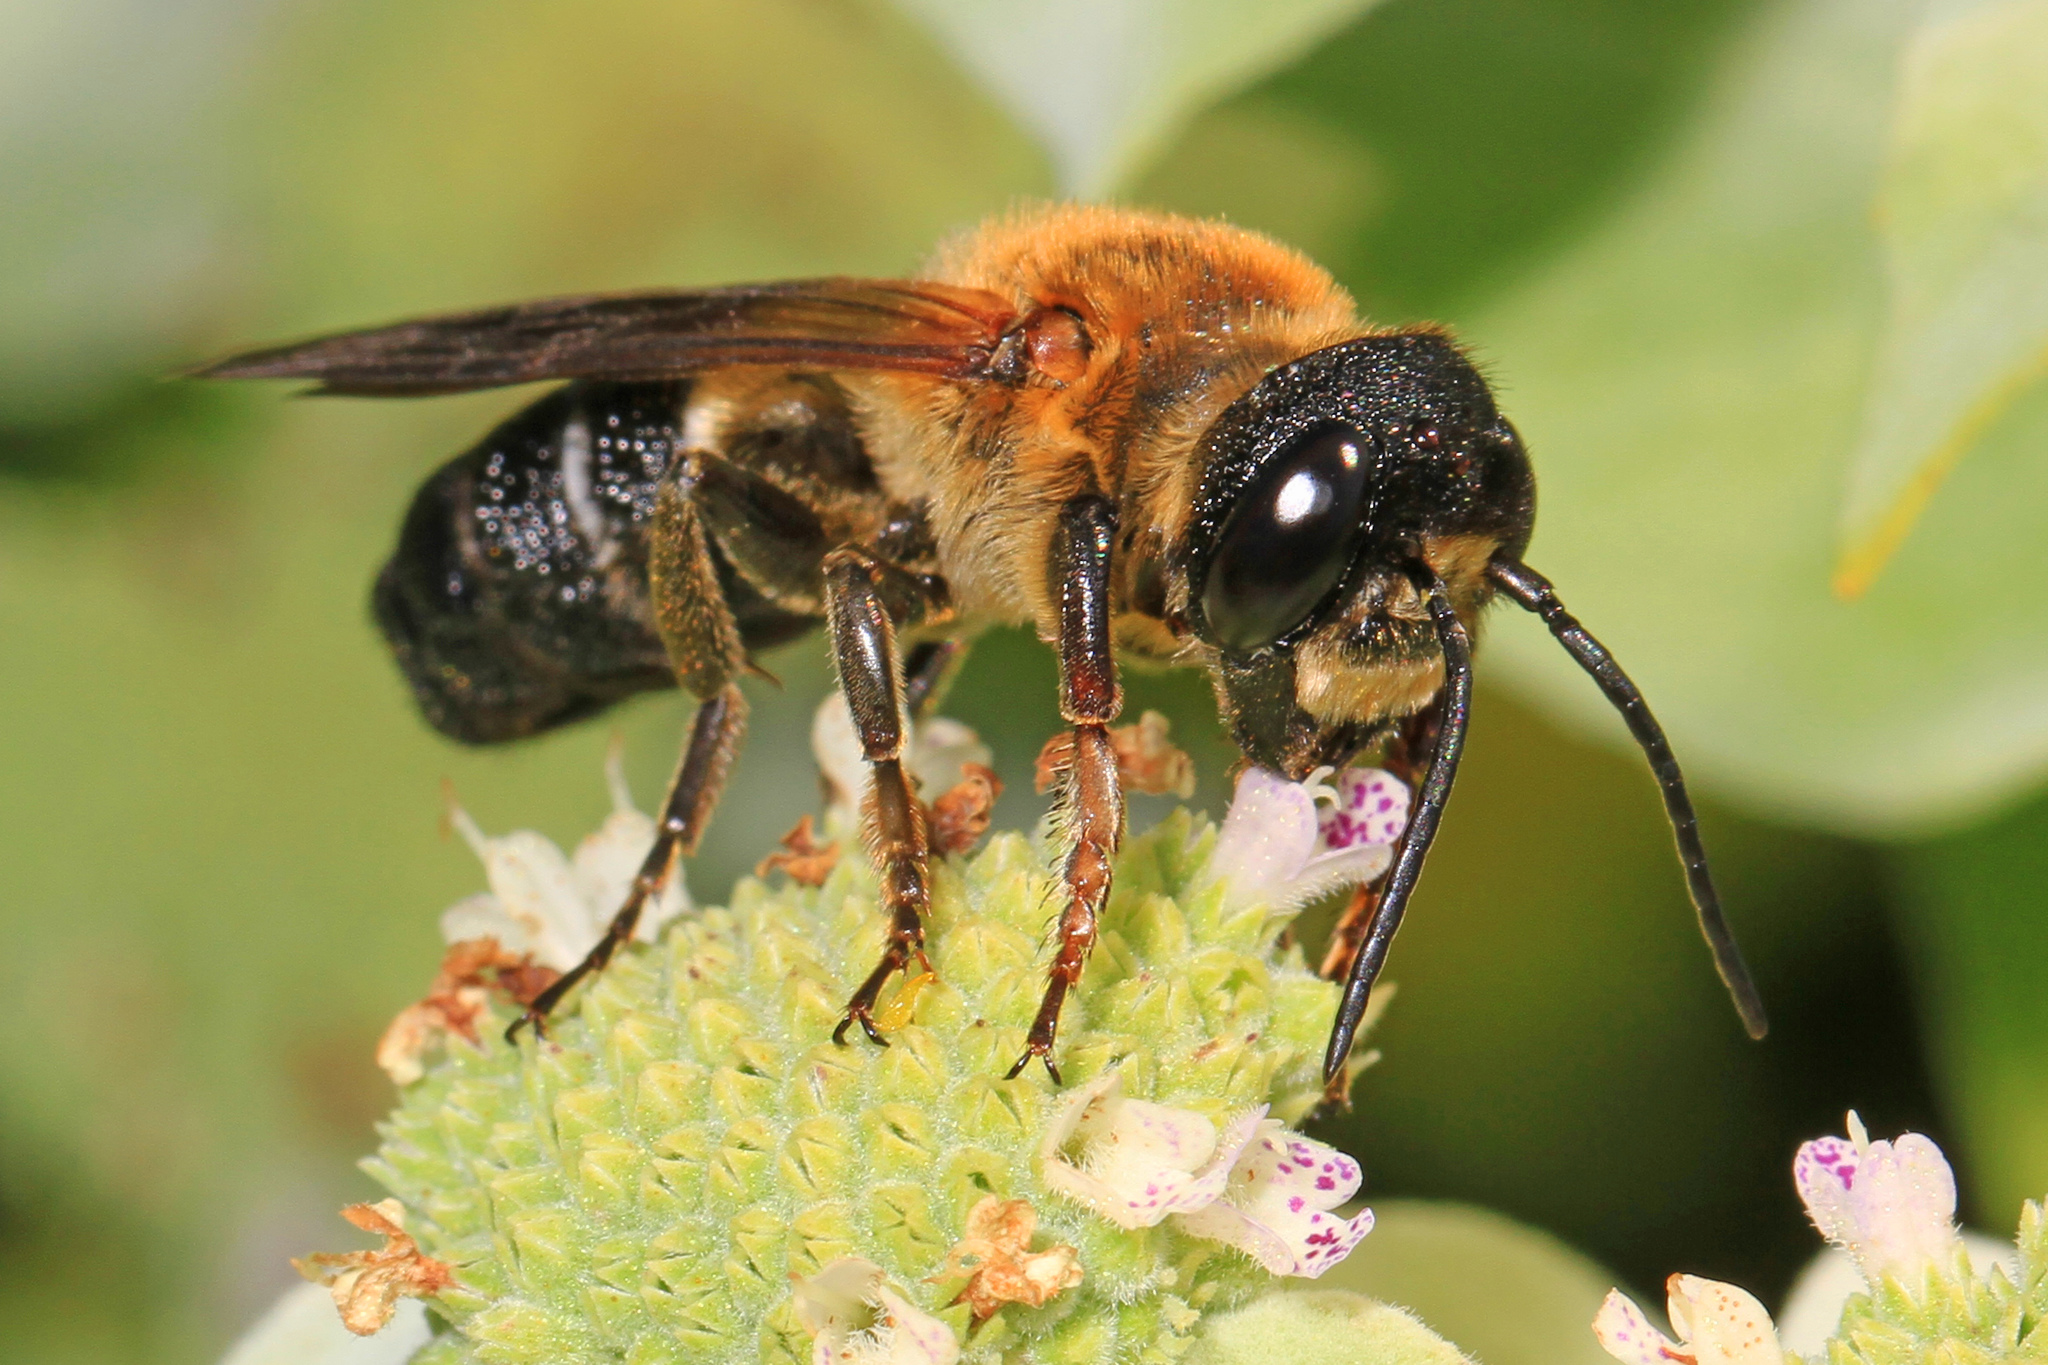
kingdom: Animalia
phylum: Arthropoda
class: Insecta
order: Hymenoptera
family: Megachilidae
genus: Megachile
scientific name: Megachile sculpturalis
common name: Sculptured resin bee
